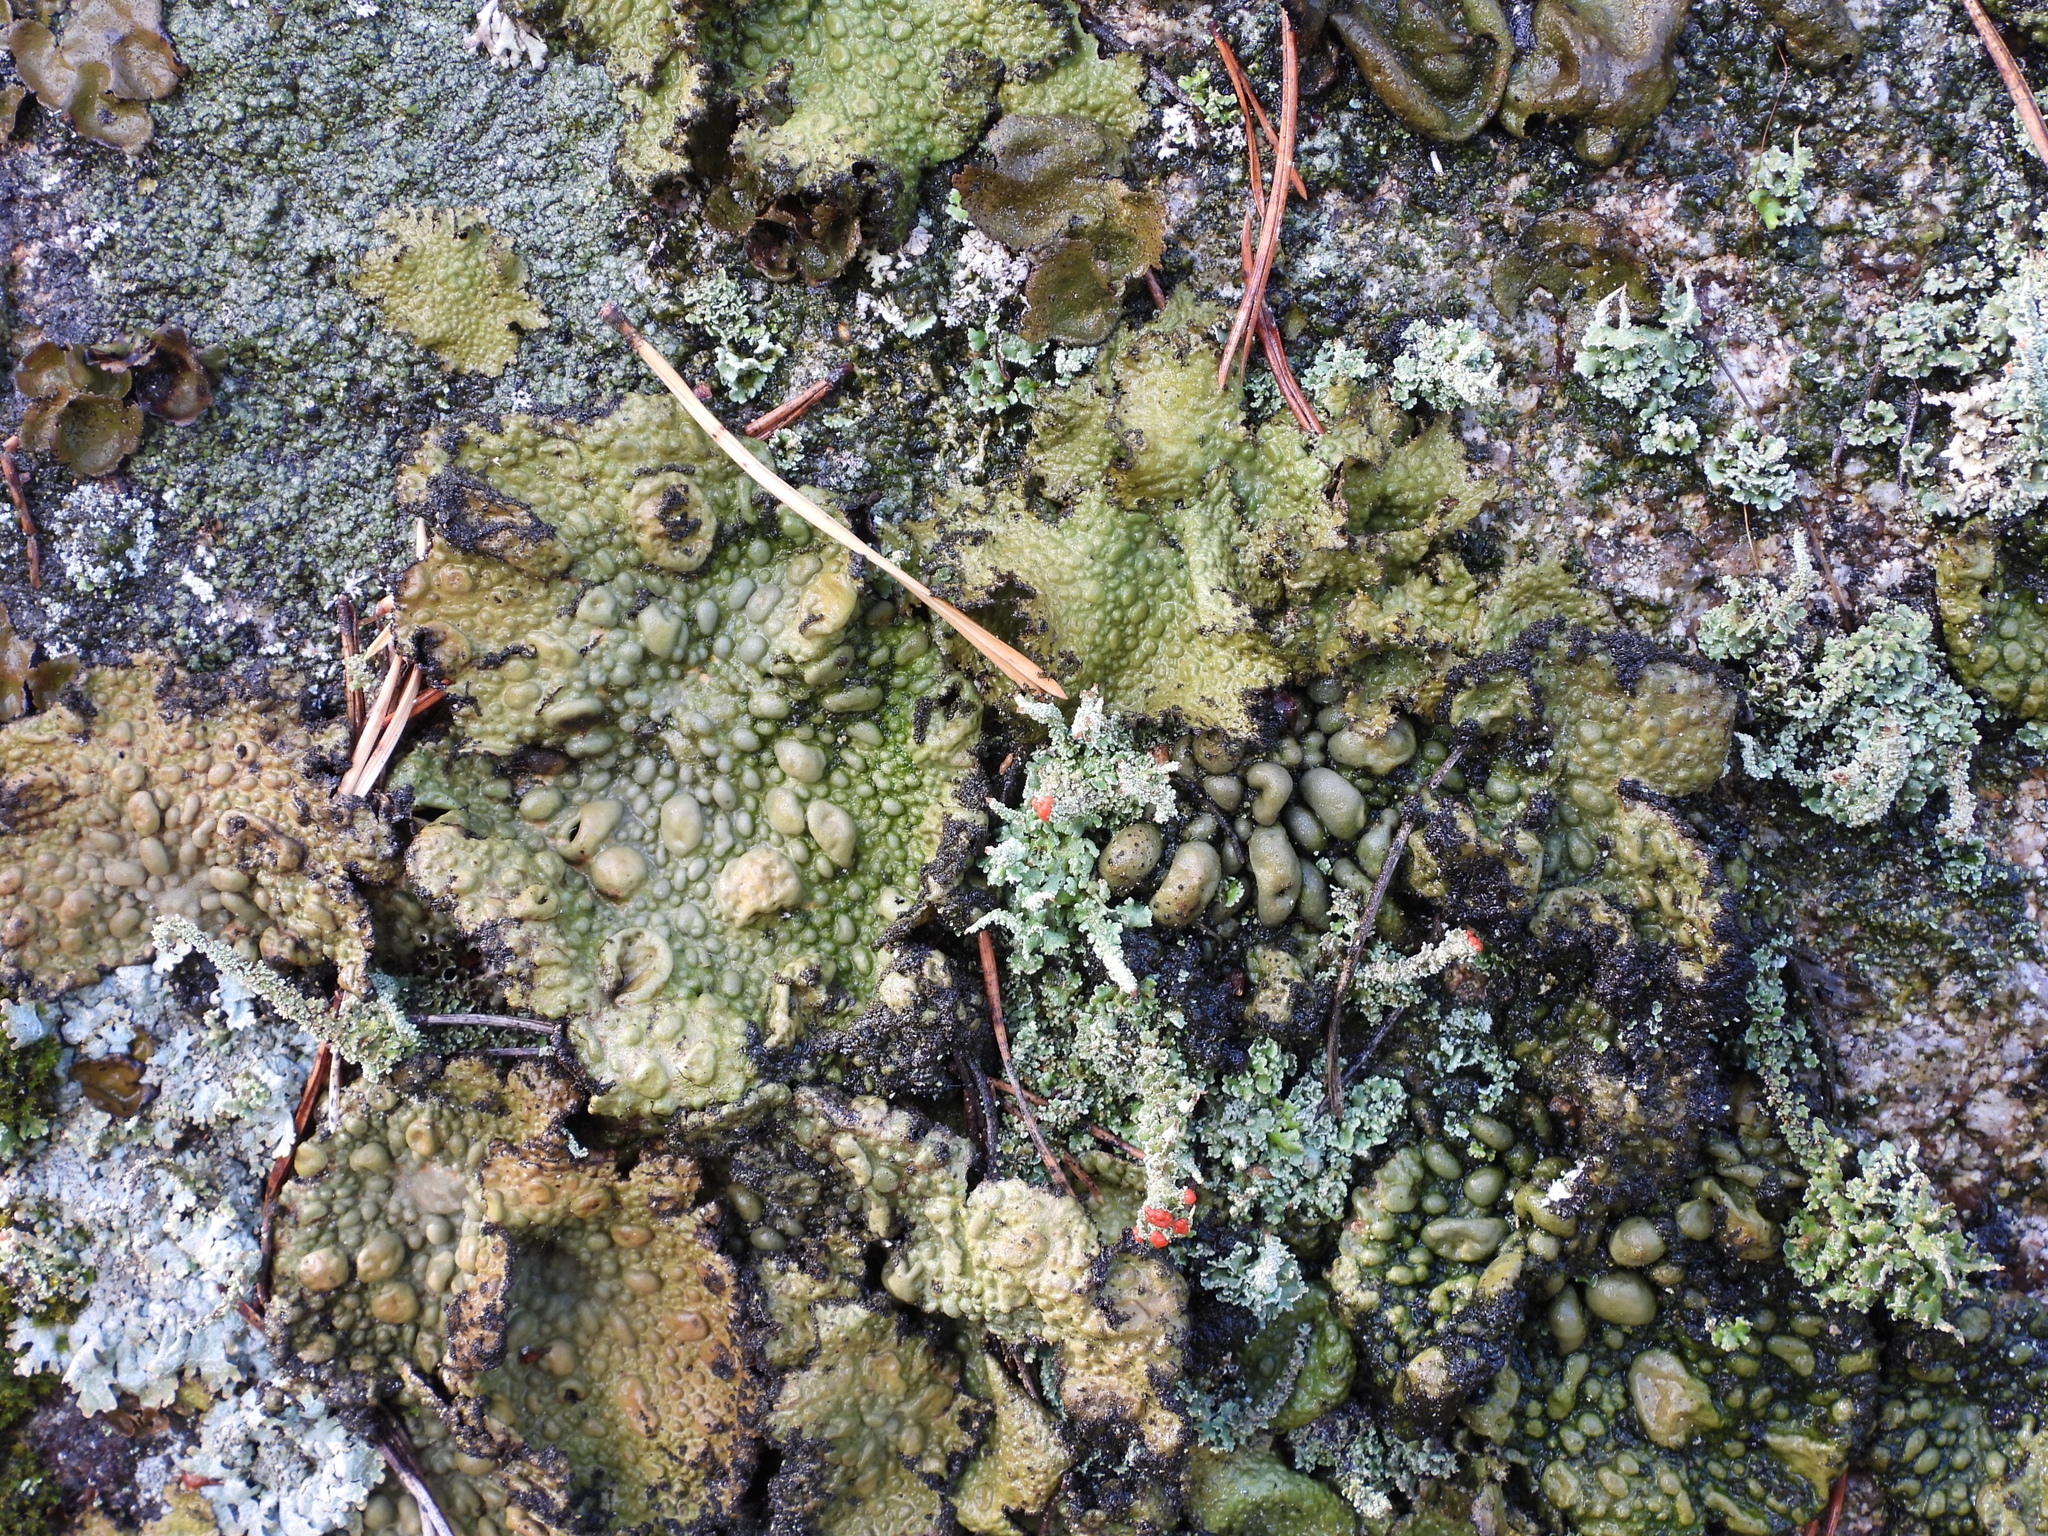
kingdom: Fungi
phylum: Ascomycota
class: Lecanoromycetes
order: Umbilicariales
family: Umbilicariaceae
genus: Lasallia
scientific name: Lasallia pustulata
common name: Blistered toadskin lichen
